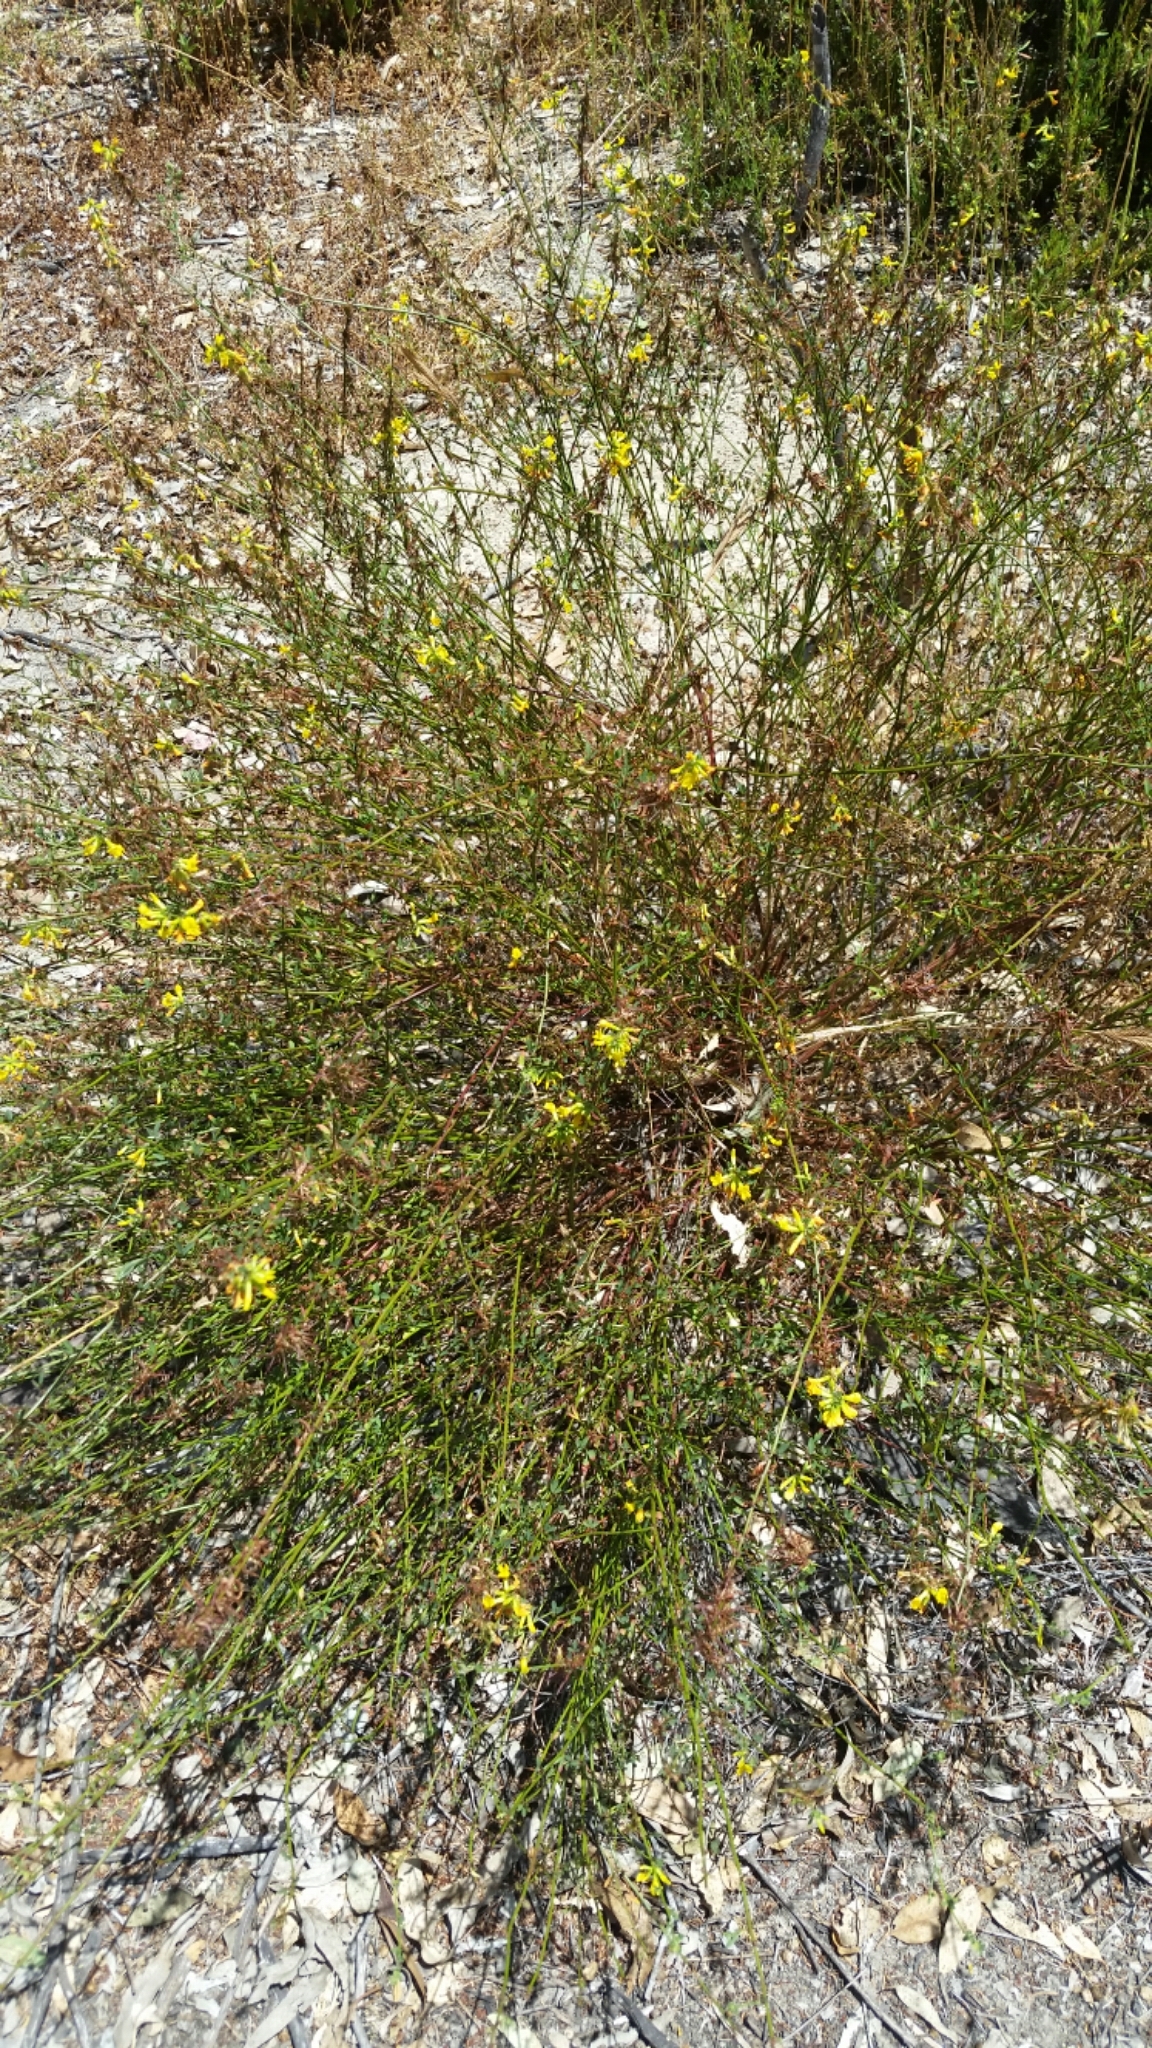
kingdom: Plantae
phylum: Tracheophyta
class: Magnoliopsida
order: Fabales
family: Fabaceae
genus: Acmispon
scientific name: Acmispon glaber
